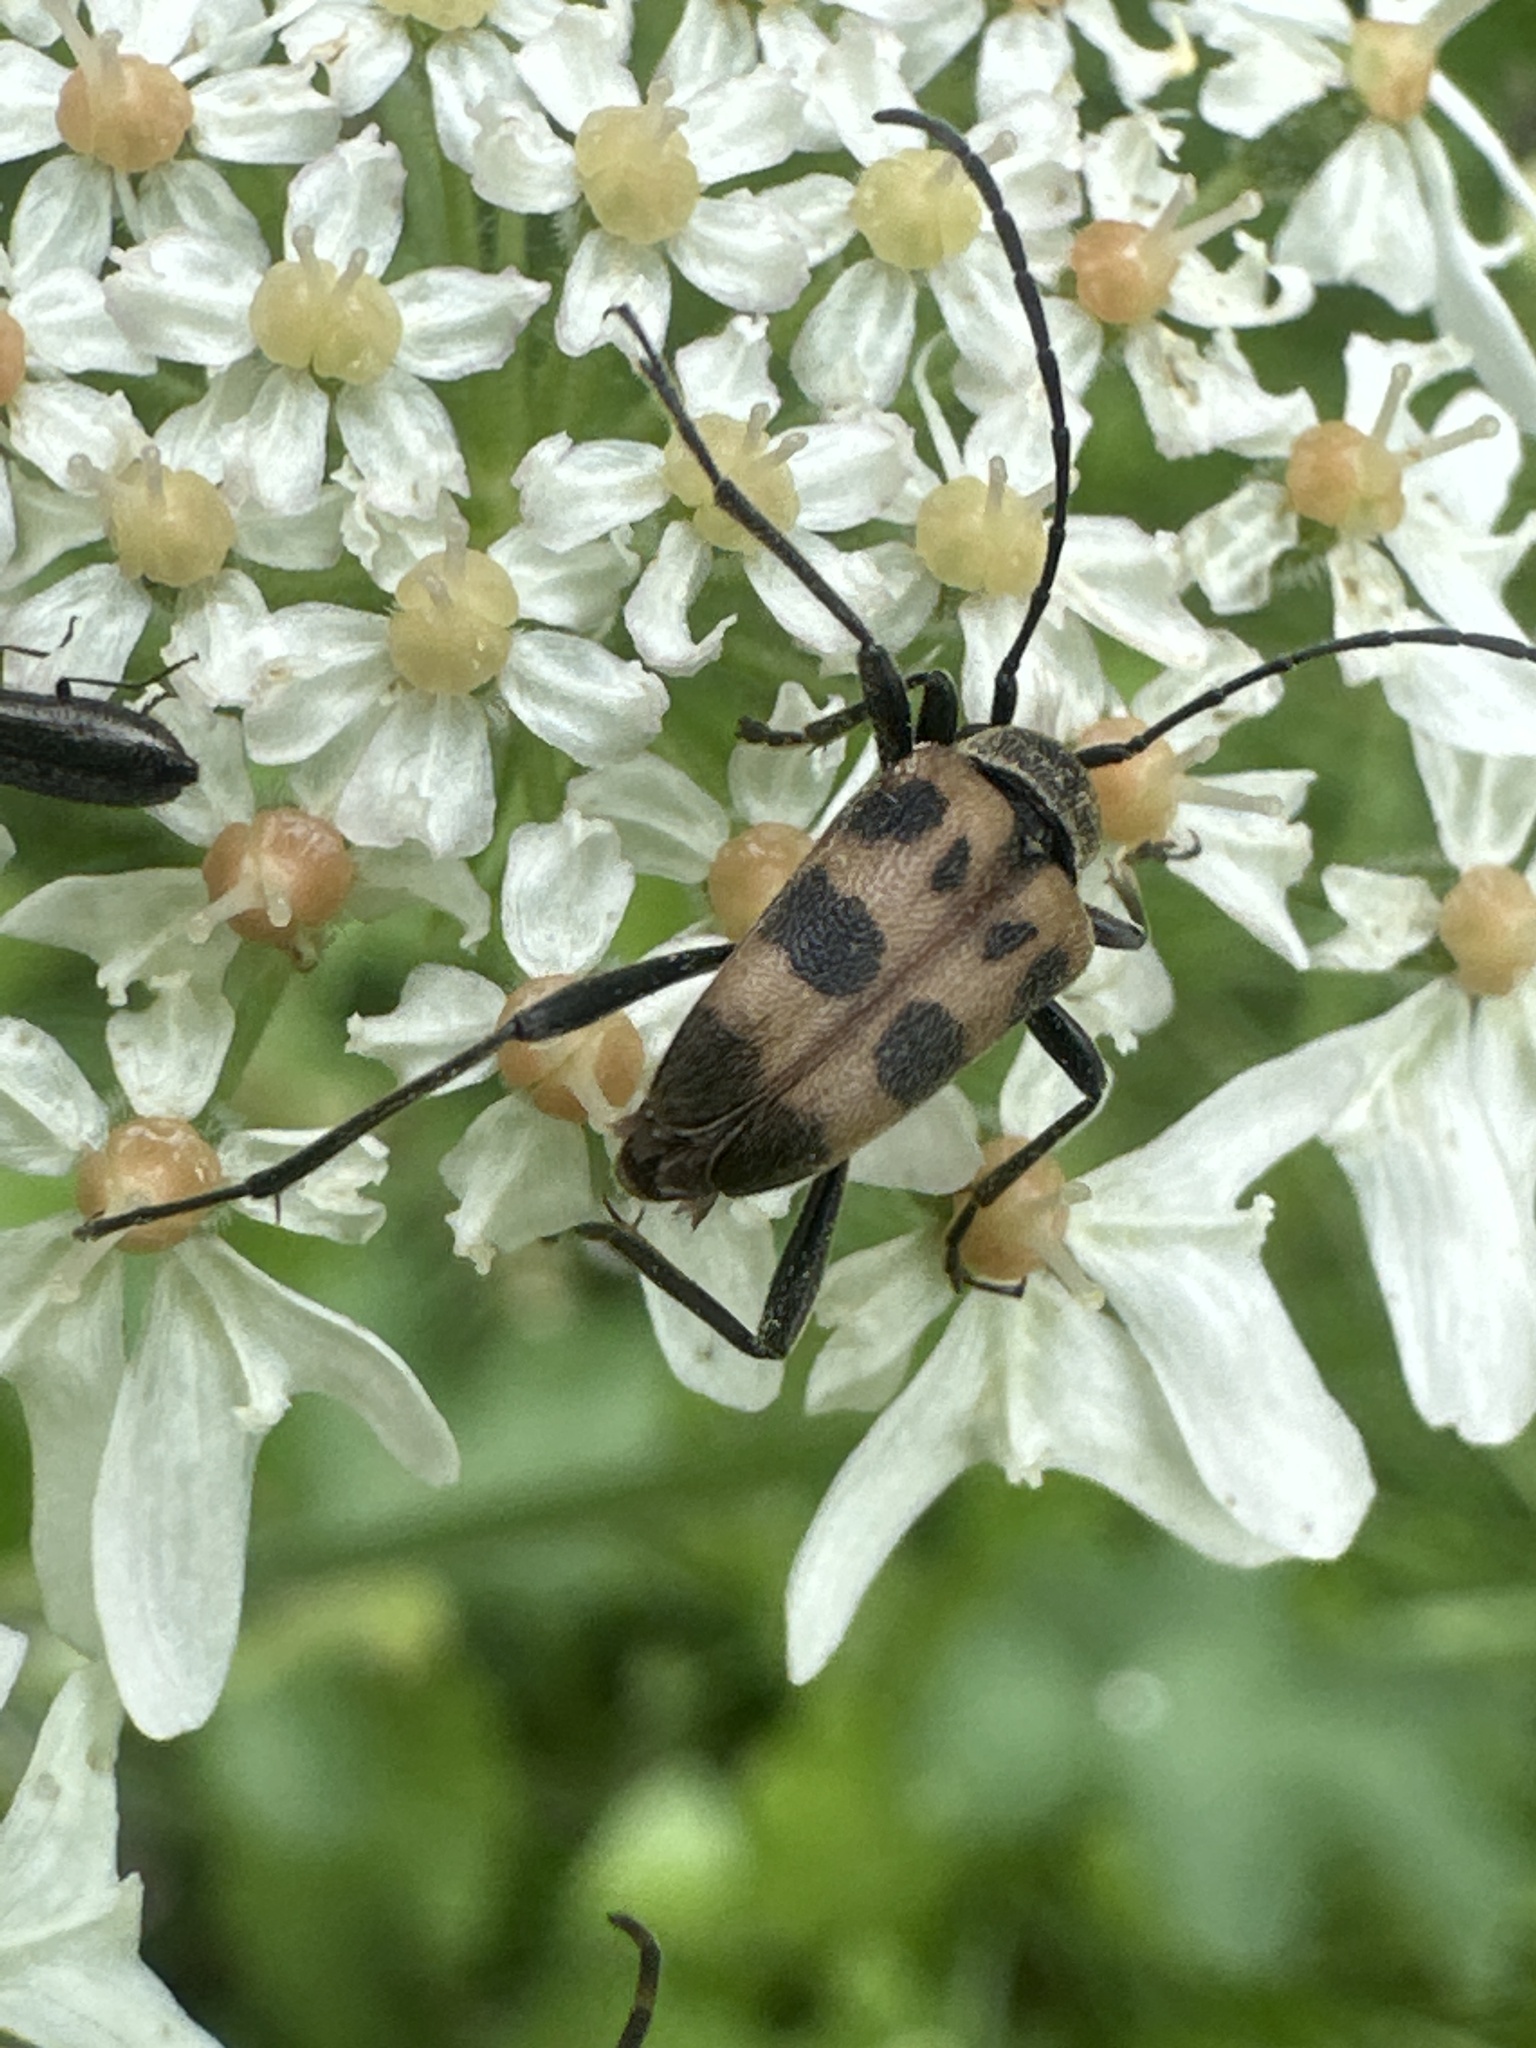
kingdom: Animalia
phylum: Arthropoda
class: Insecta
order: Coleoptera
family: Cerambycidae
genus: Pachytodes
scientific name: Pachytodes cerambyciformis
